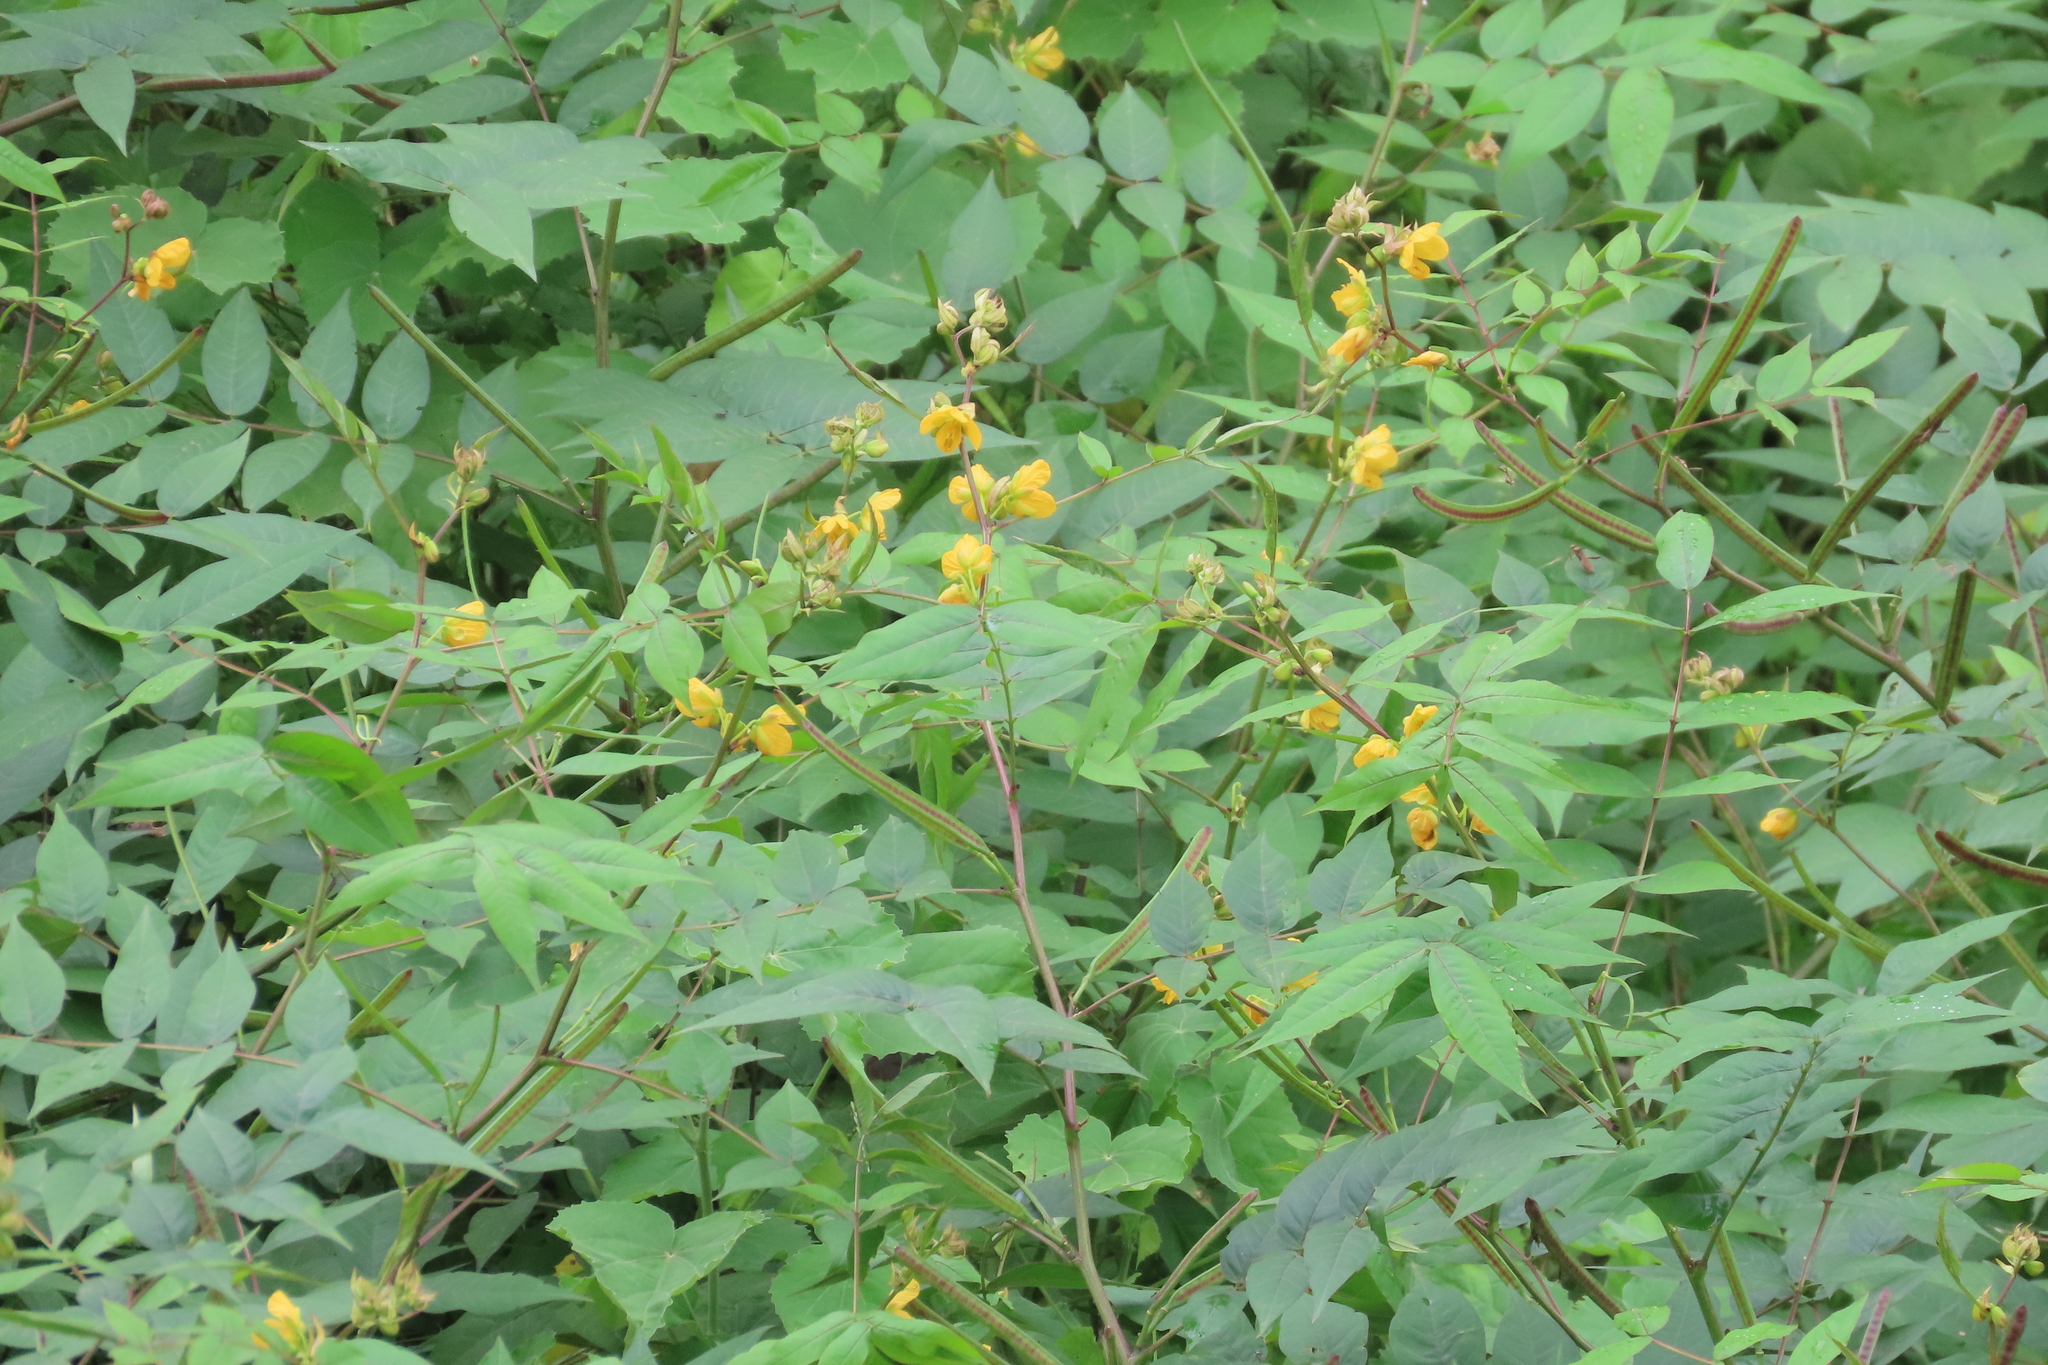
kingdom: Plantae
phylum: Tracheophyta
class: Magnoliopsida
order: Fabales
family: Fabaceae
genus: Senna
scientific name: Senna occidentalis
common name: Septicweed
